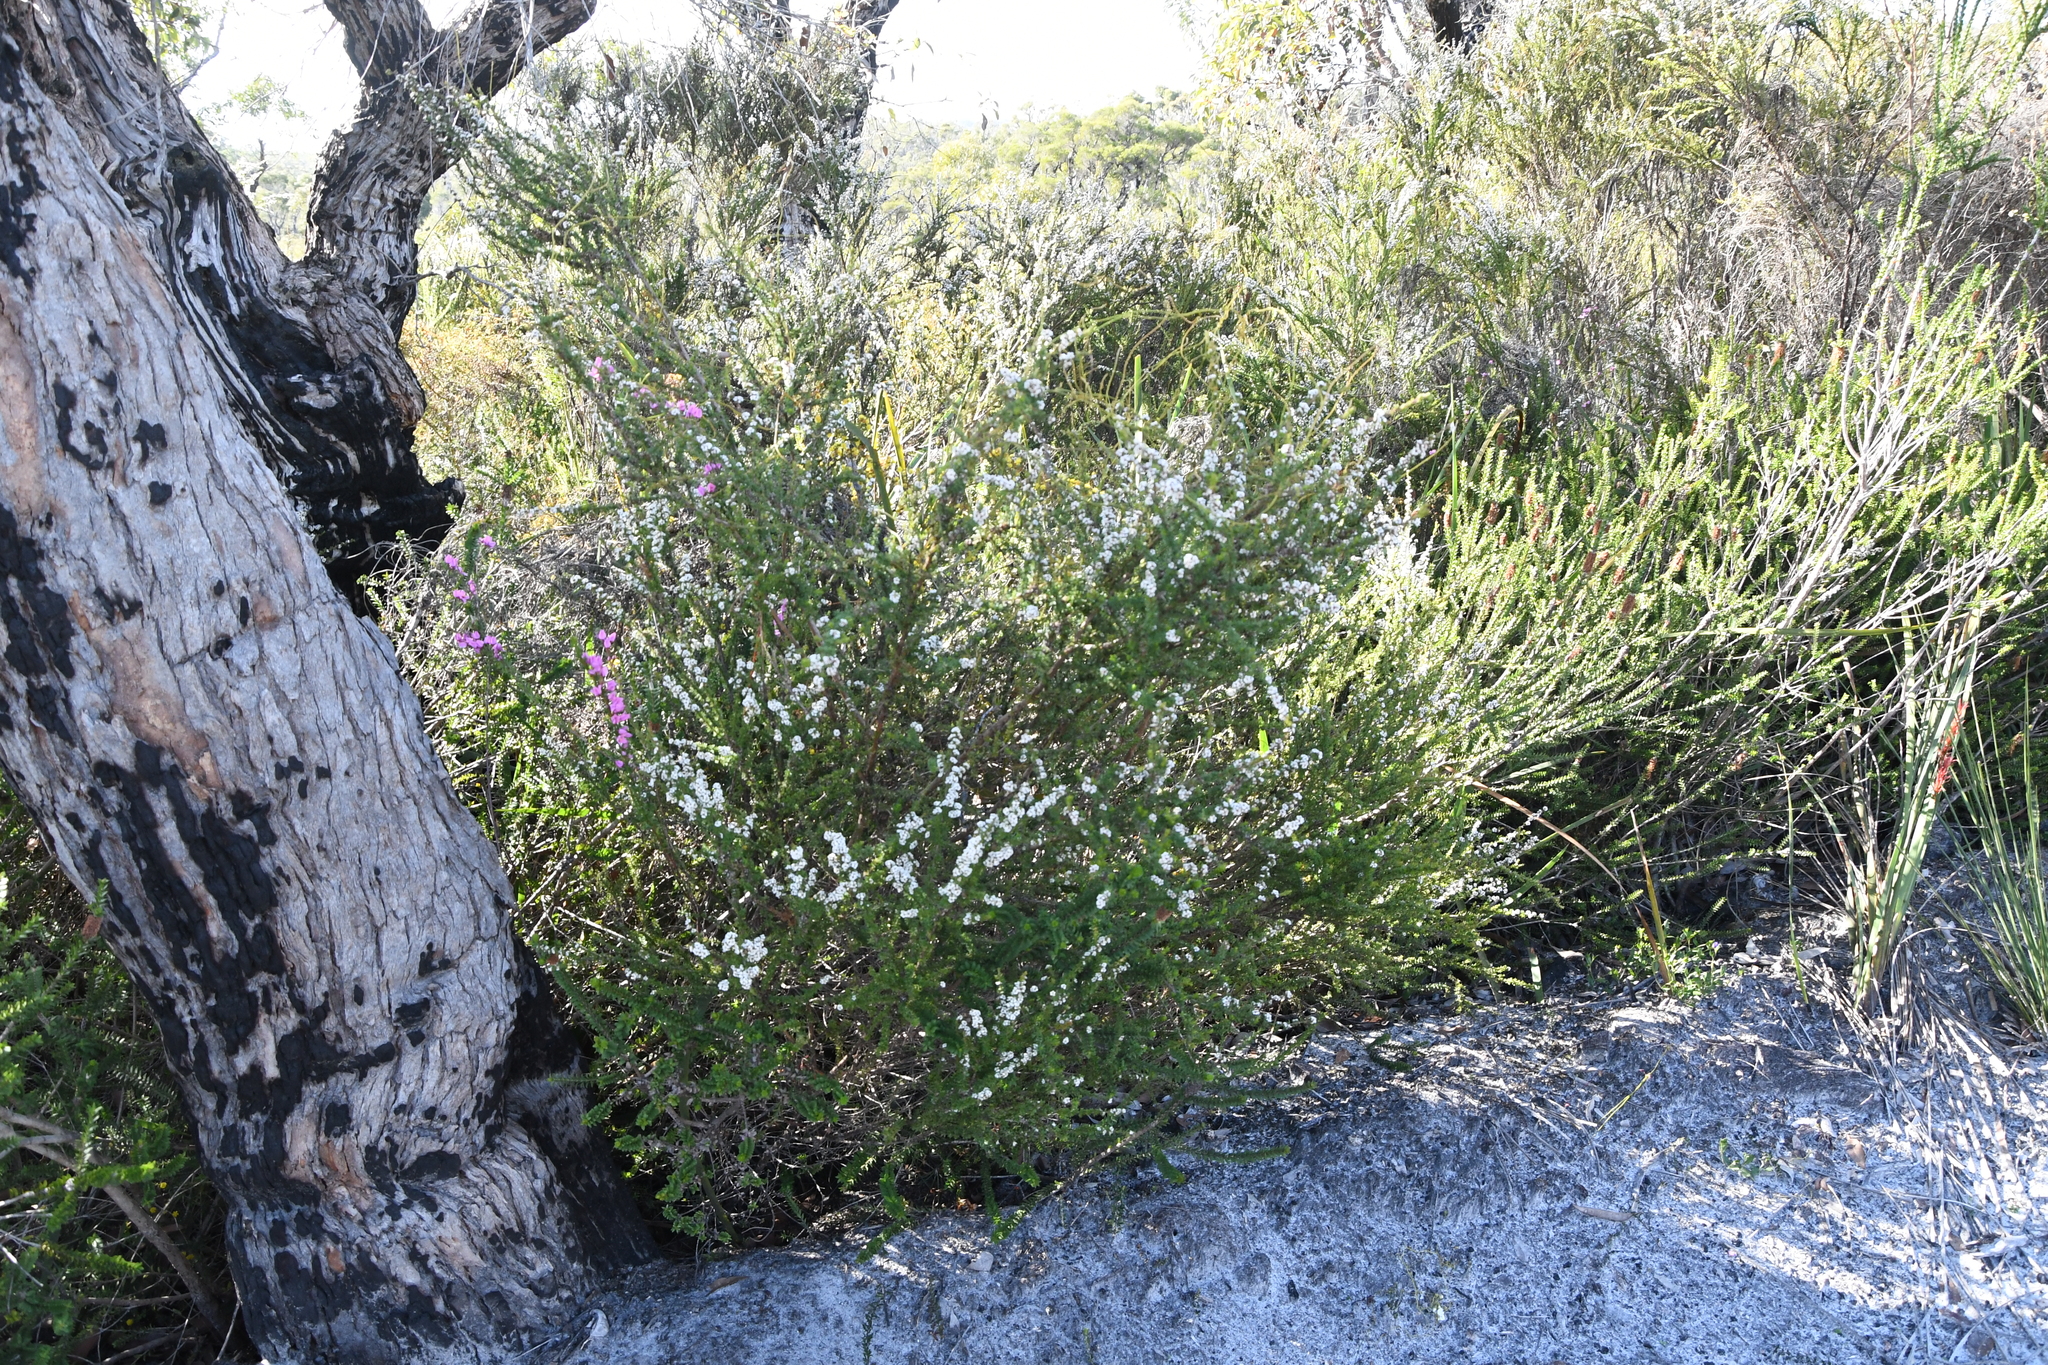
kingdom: Plantae
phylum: Tracheophyta
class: Magnoliopsida
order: Myrtales
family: Myrtaceae
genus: Taxandria
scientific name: Taxandria parviceps
